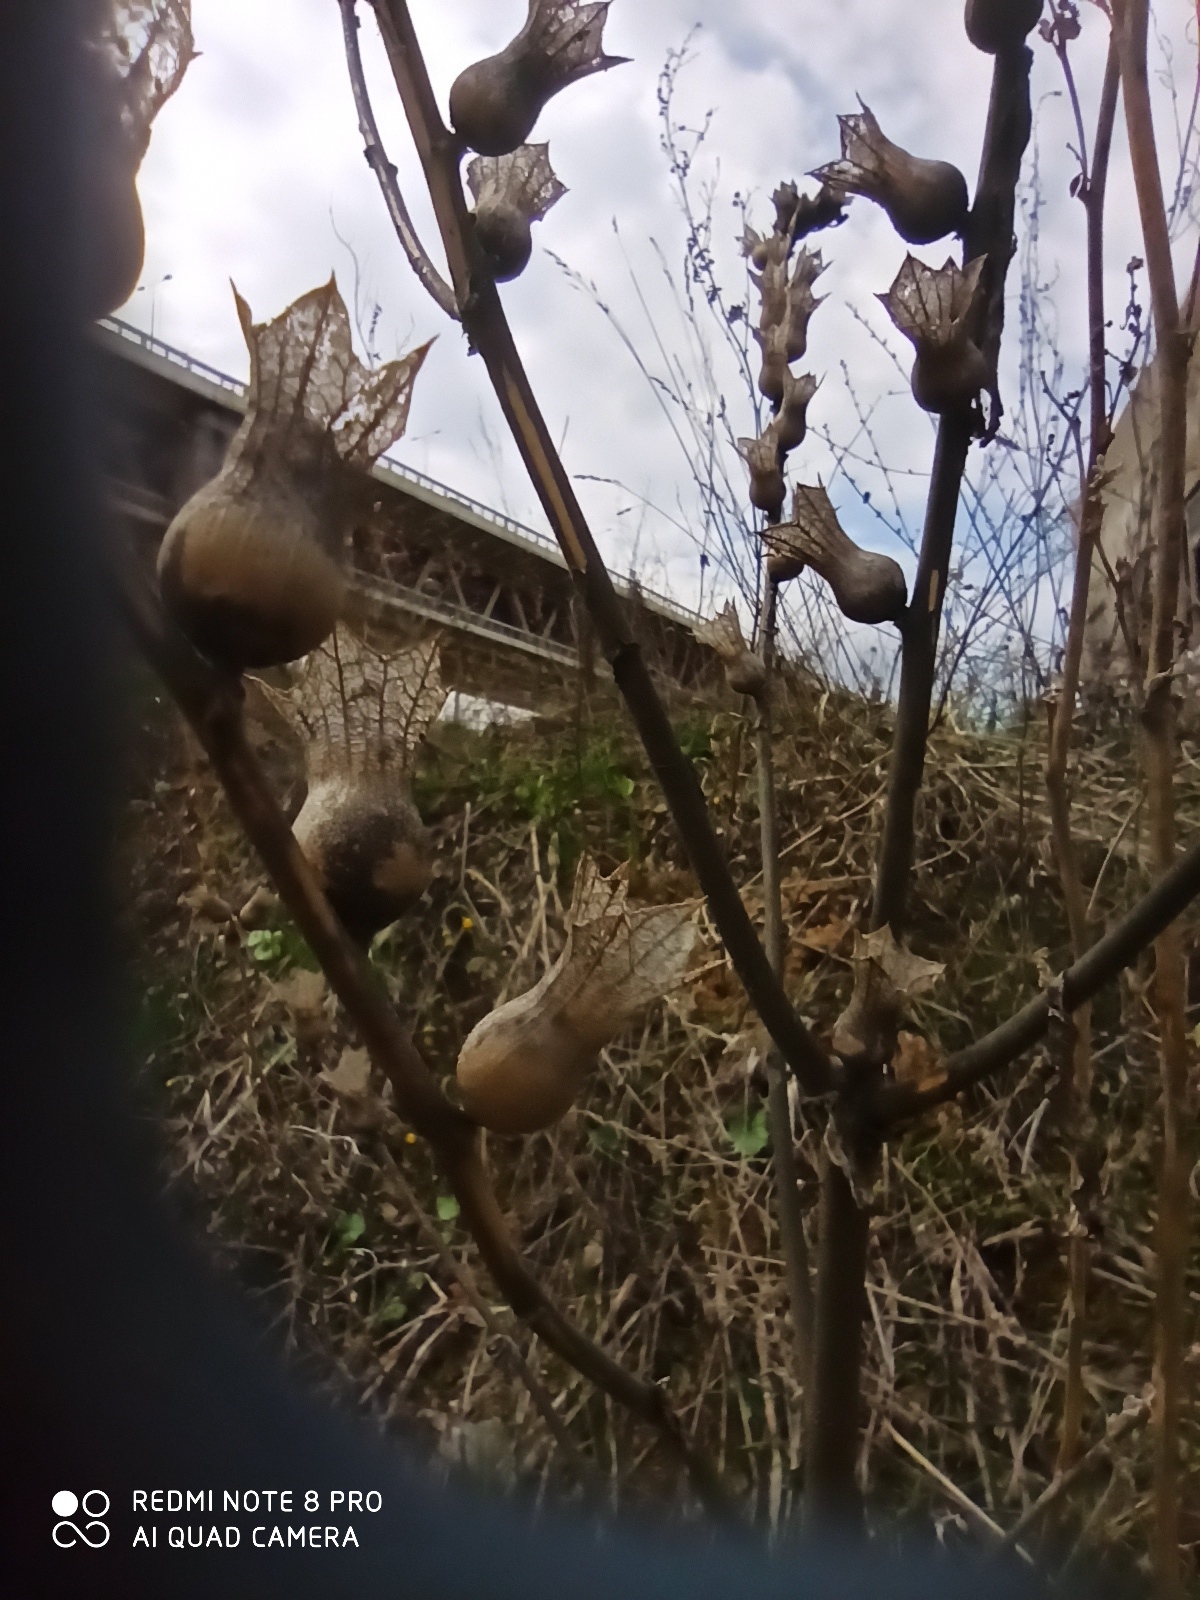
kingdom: Plantae
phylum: Tracheophyta
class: Magnoliopsida
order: Solanales
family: Solanaceae
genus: Hyoscyamus
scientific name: Hyoscyamus niger
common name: Henbane
